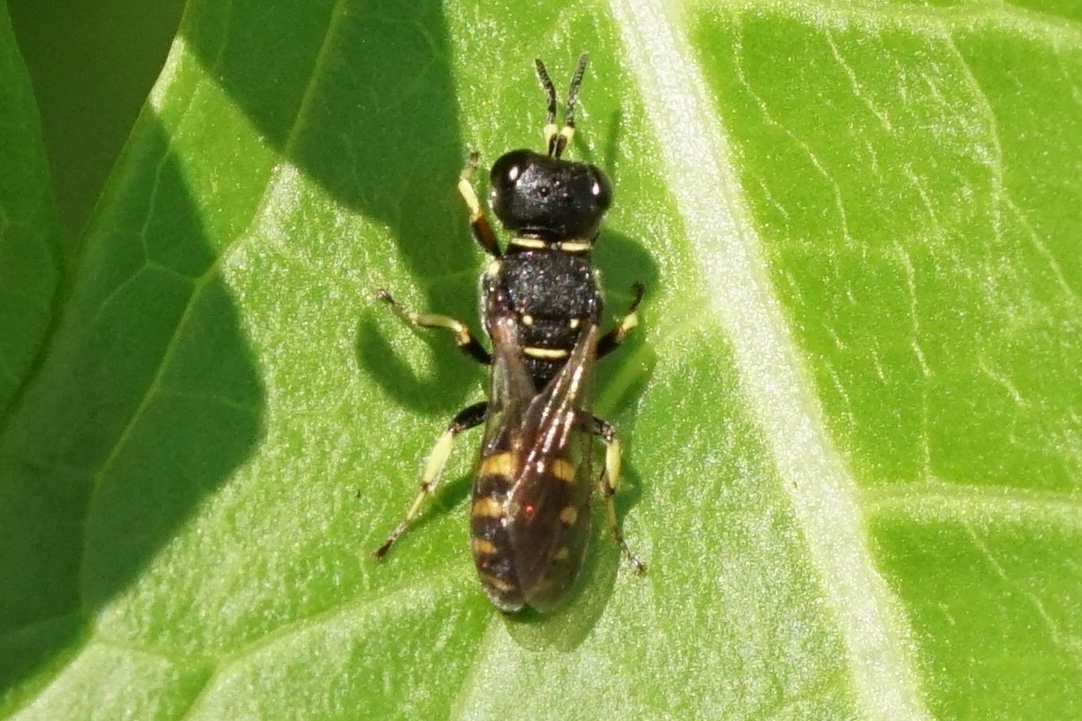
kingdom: Animalia
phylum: Arthropoda
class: Insecta
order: Hymenoptera
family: Crabronidae
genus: Ectemnius
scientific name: Ectemnius dives
